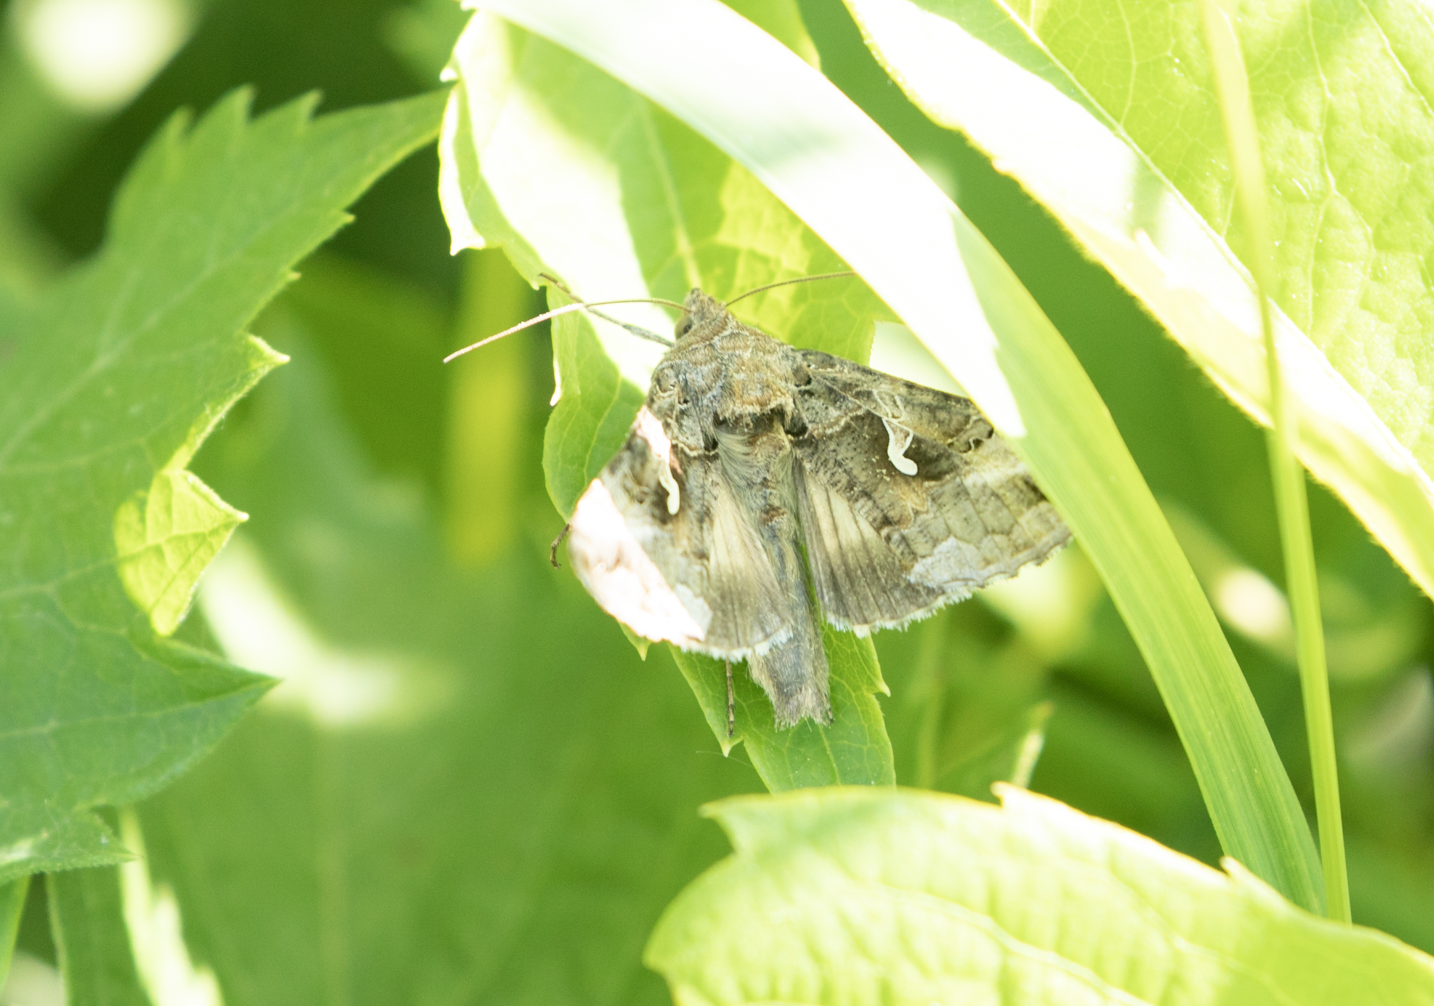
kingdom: Animalia
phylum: Arthropoda
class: Insecta
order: Lepidoptera
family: Noctuidae
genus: Autographa
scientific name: Autographa gamma
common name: Silver y
